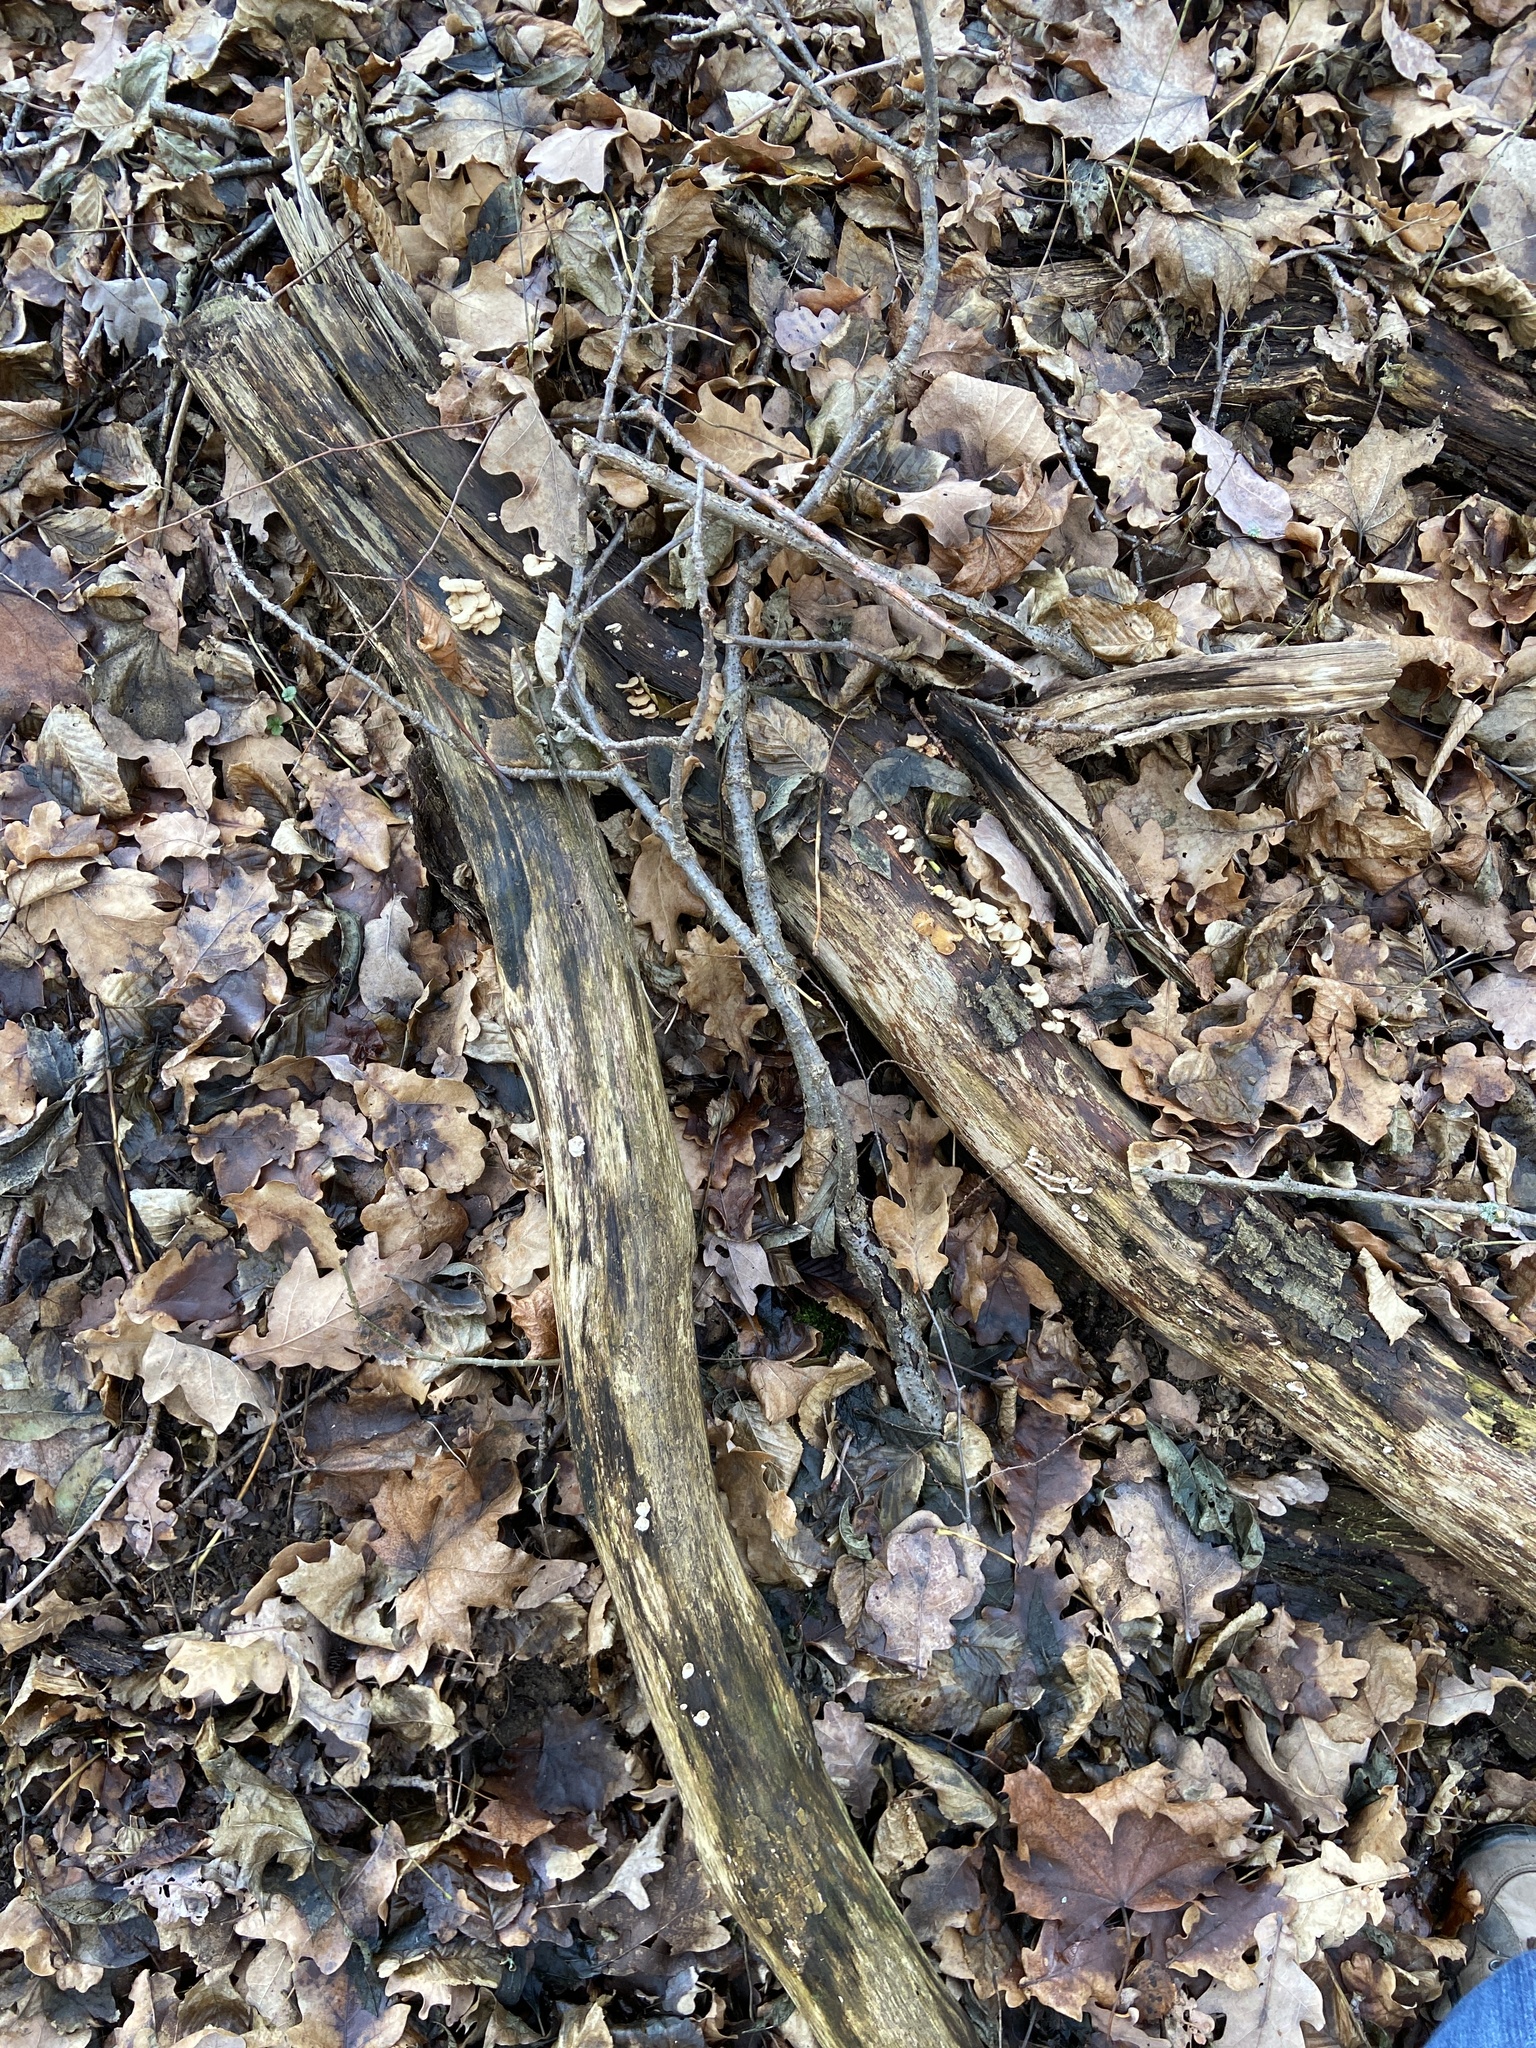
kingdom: Fungi
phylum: Basidiomycota
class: Agaricomycetes
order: Agaricales
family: Mycenaceae
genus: Panellus
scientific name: Panellus stipticus
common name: Bitter oysterling
